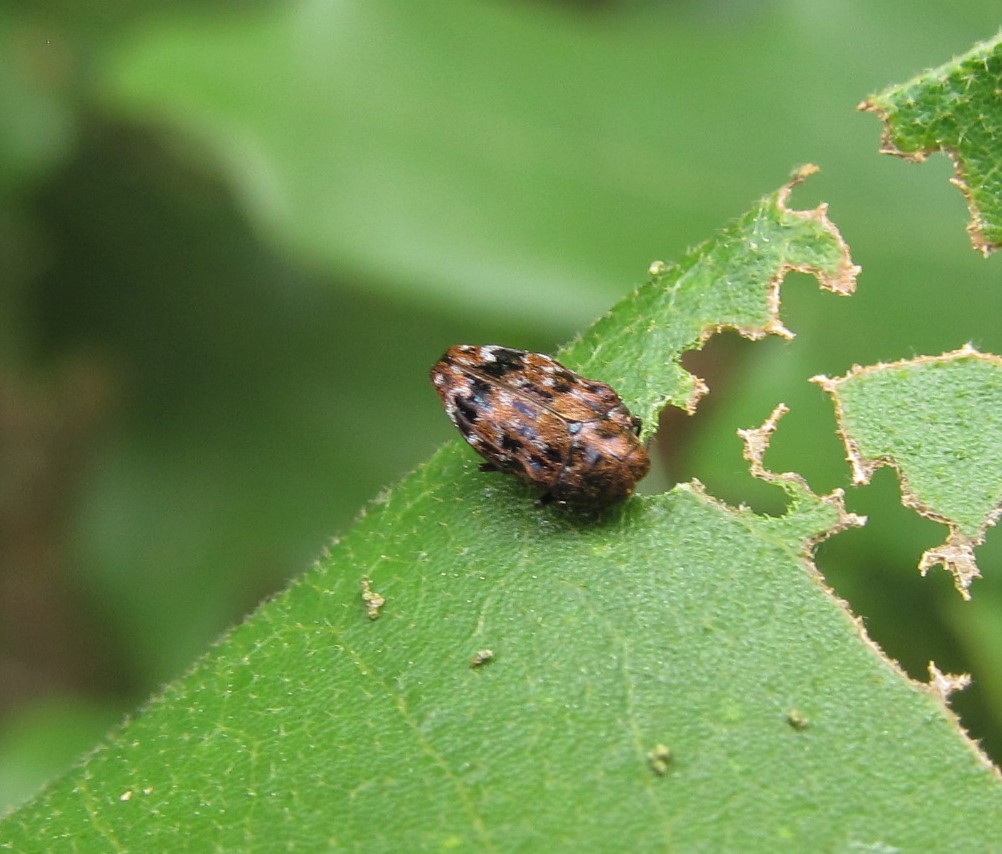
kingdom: Animalia
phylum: Arthropoda
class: Insecta
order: Coleoptera
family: Buprestidae
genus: Brachys
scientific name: Brachys ovatus
